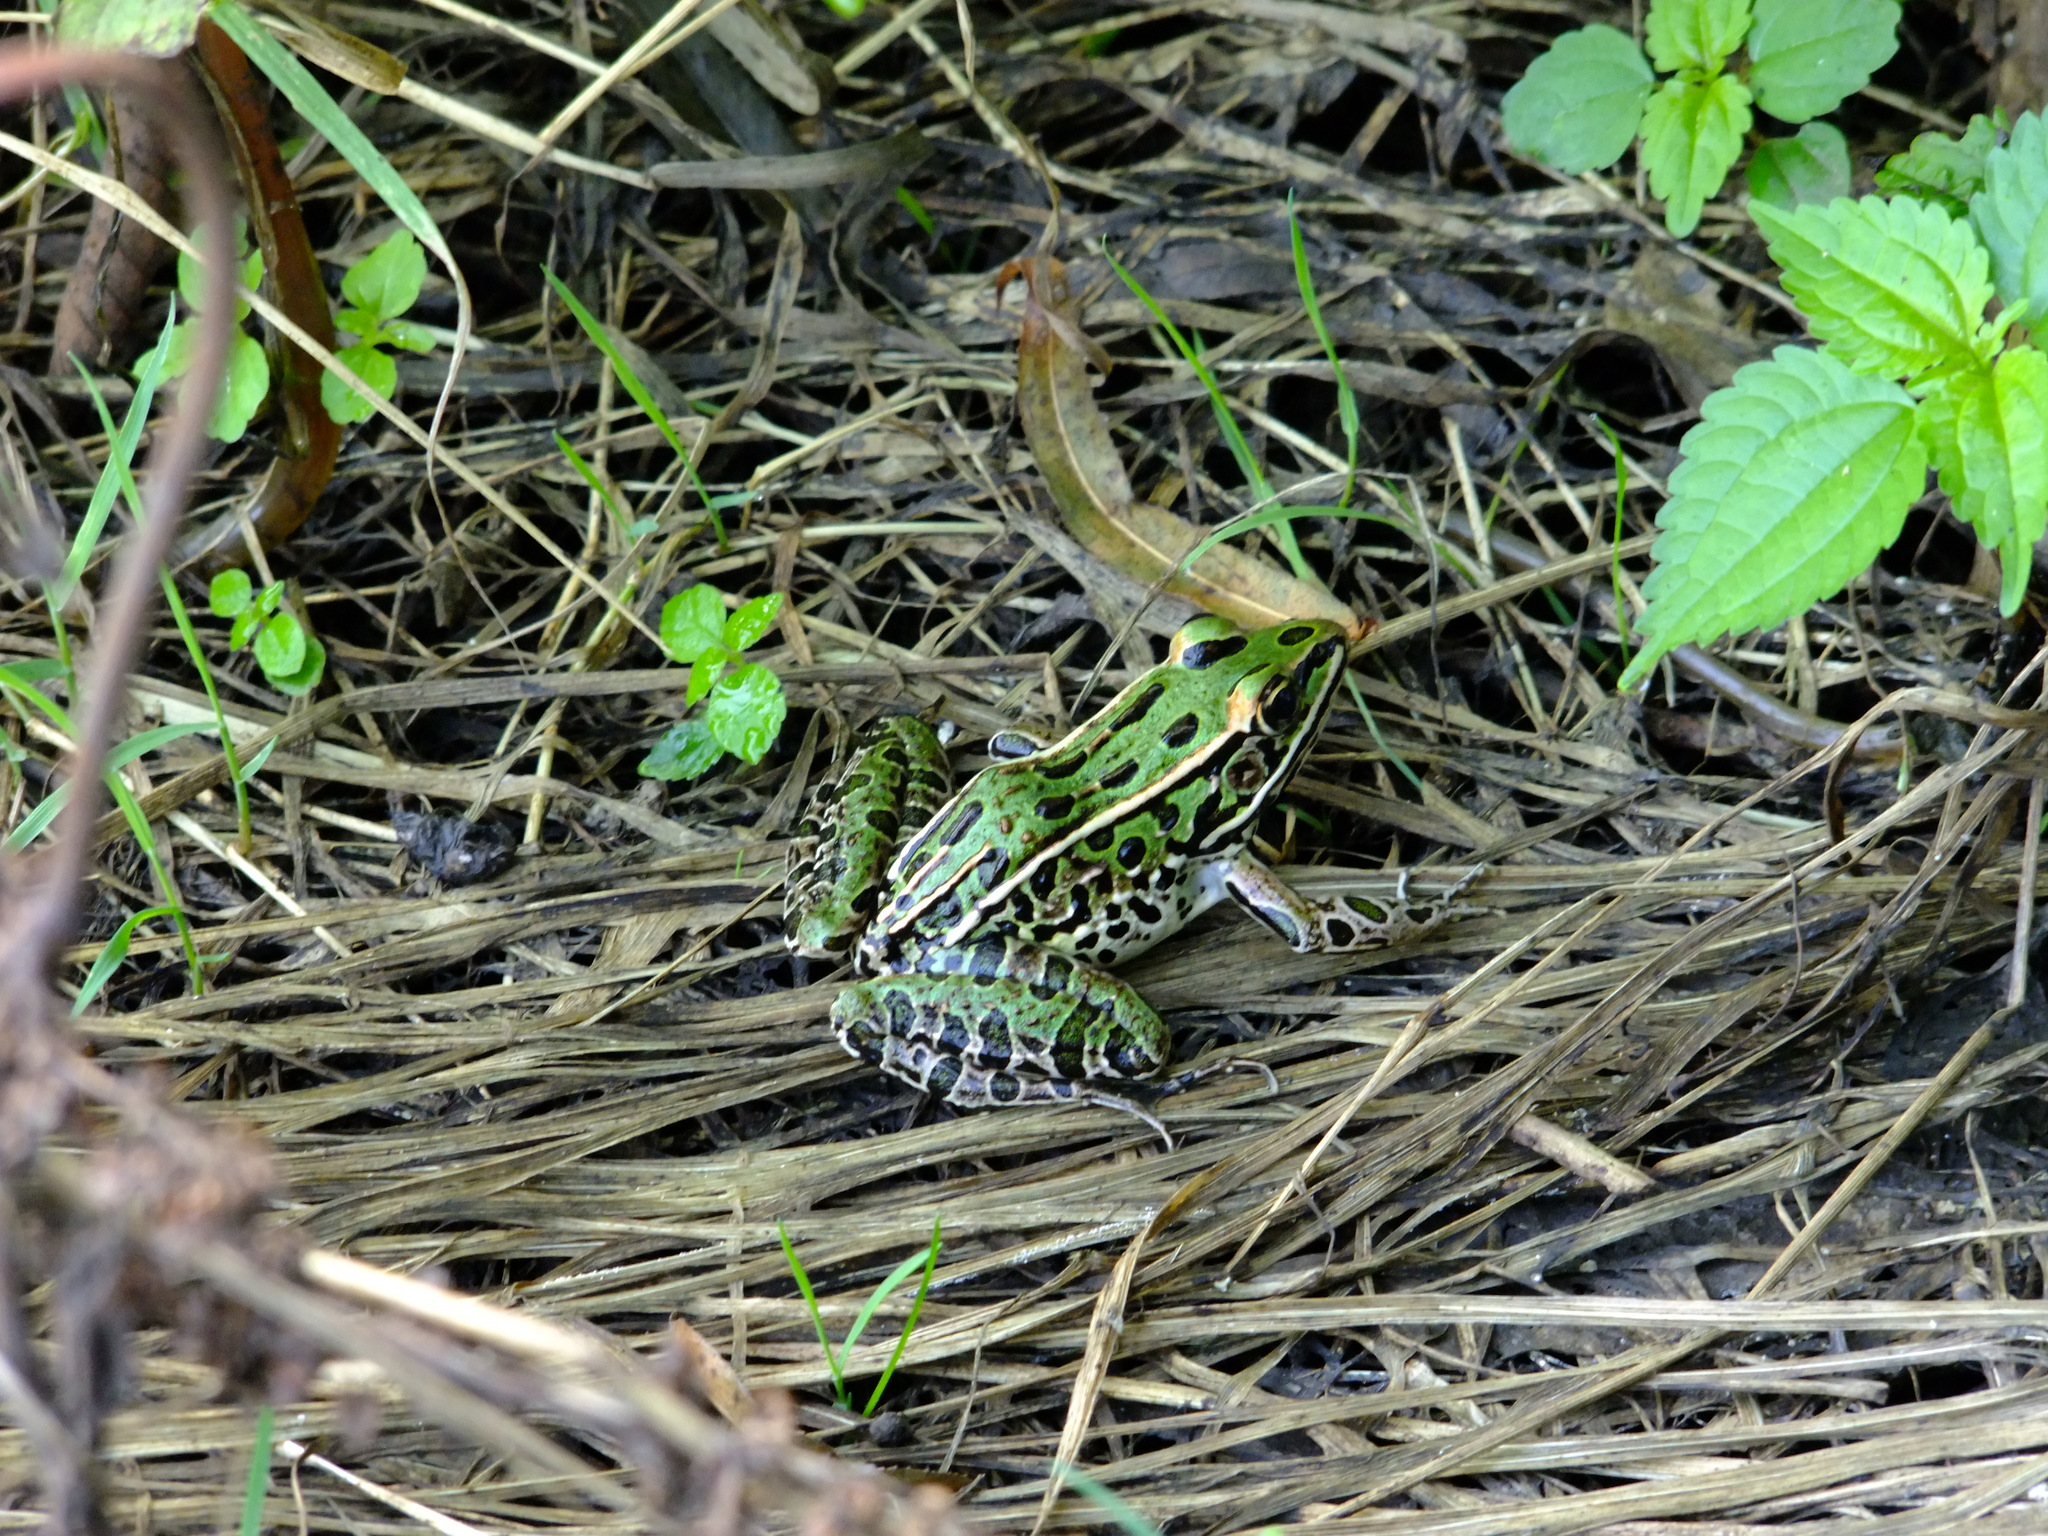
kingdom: Animalia
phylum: Chordata
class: Amphibia
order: Anura
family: Ranidae
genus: Lithobates
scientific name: Lithobates pipiens
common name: Northern leopard frog
